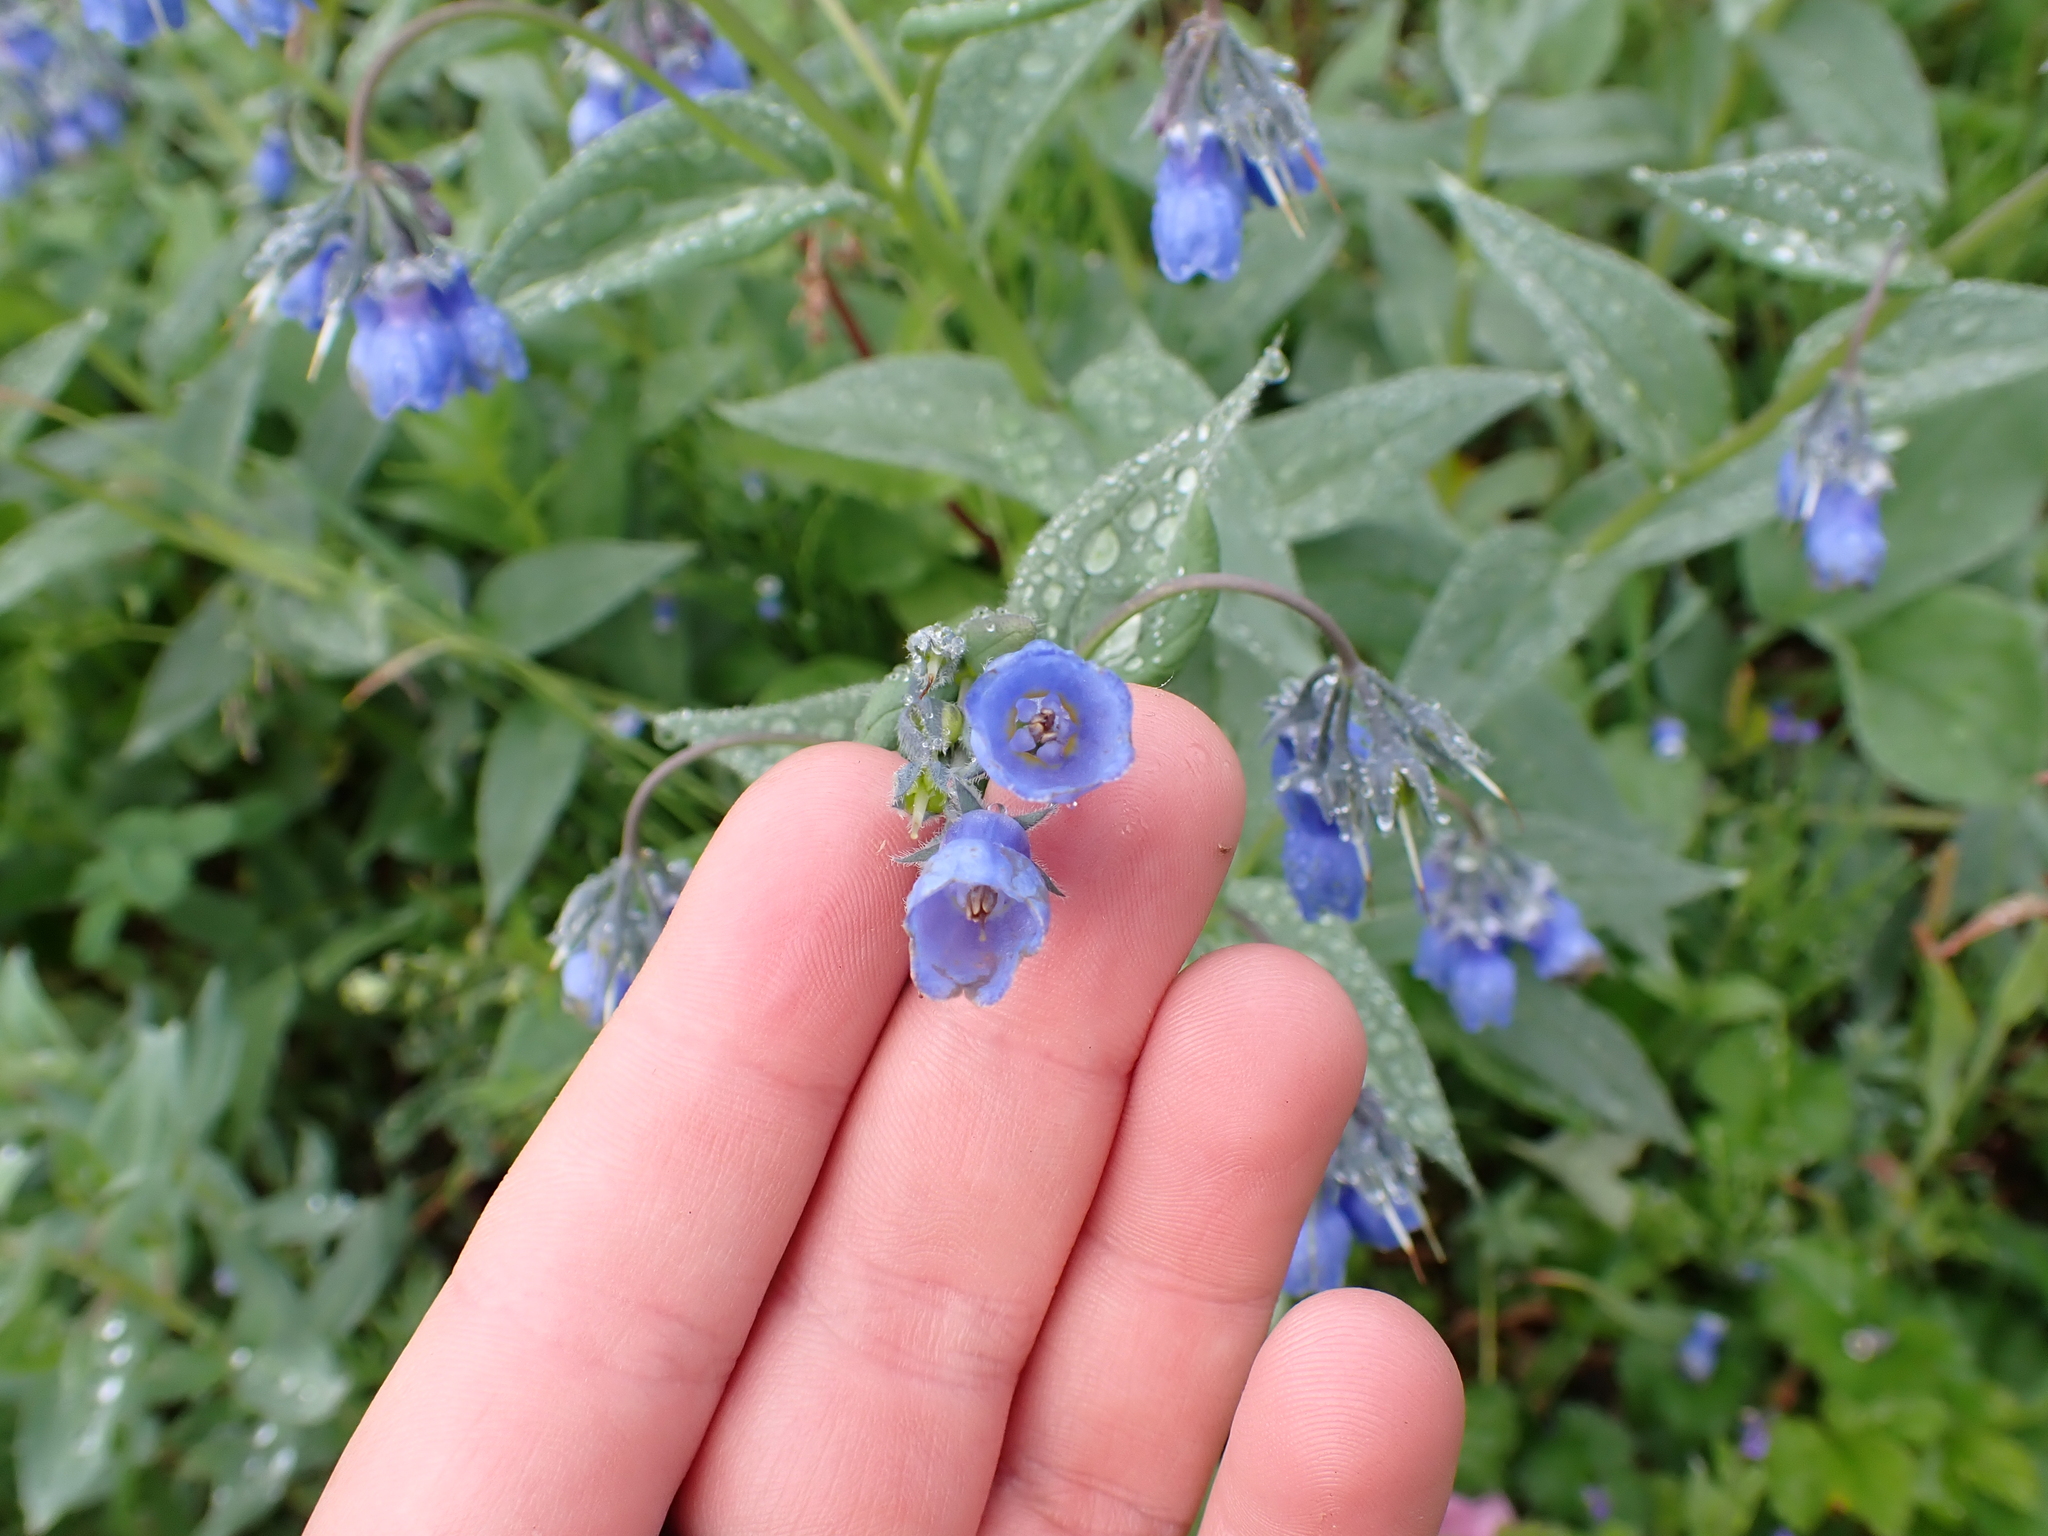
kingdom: Plantae
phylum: Tracheophyta
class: Magnoliopsida
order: Boraginales
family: Boraginaceae
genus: Mertensia
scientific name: Mertensia paniculata
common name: Panicled bluebells
